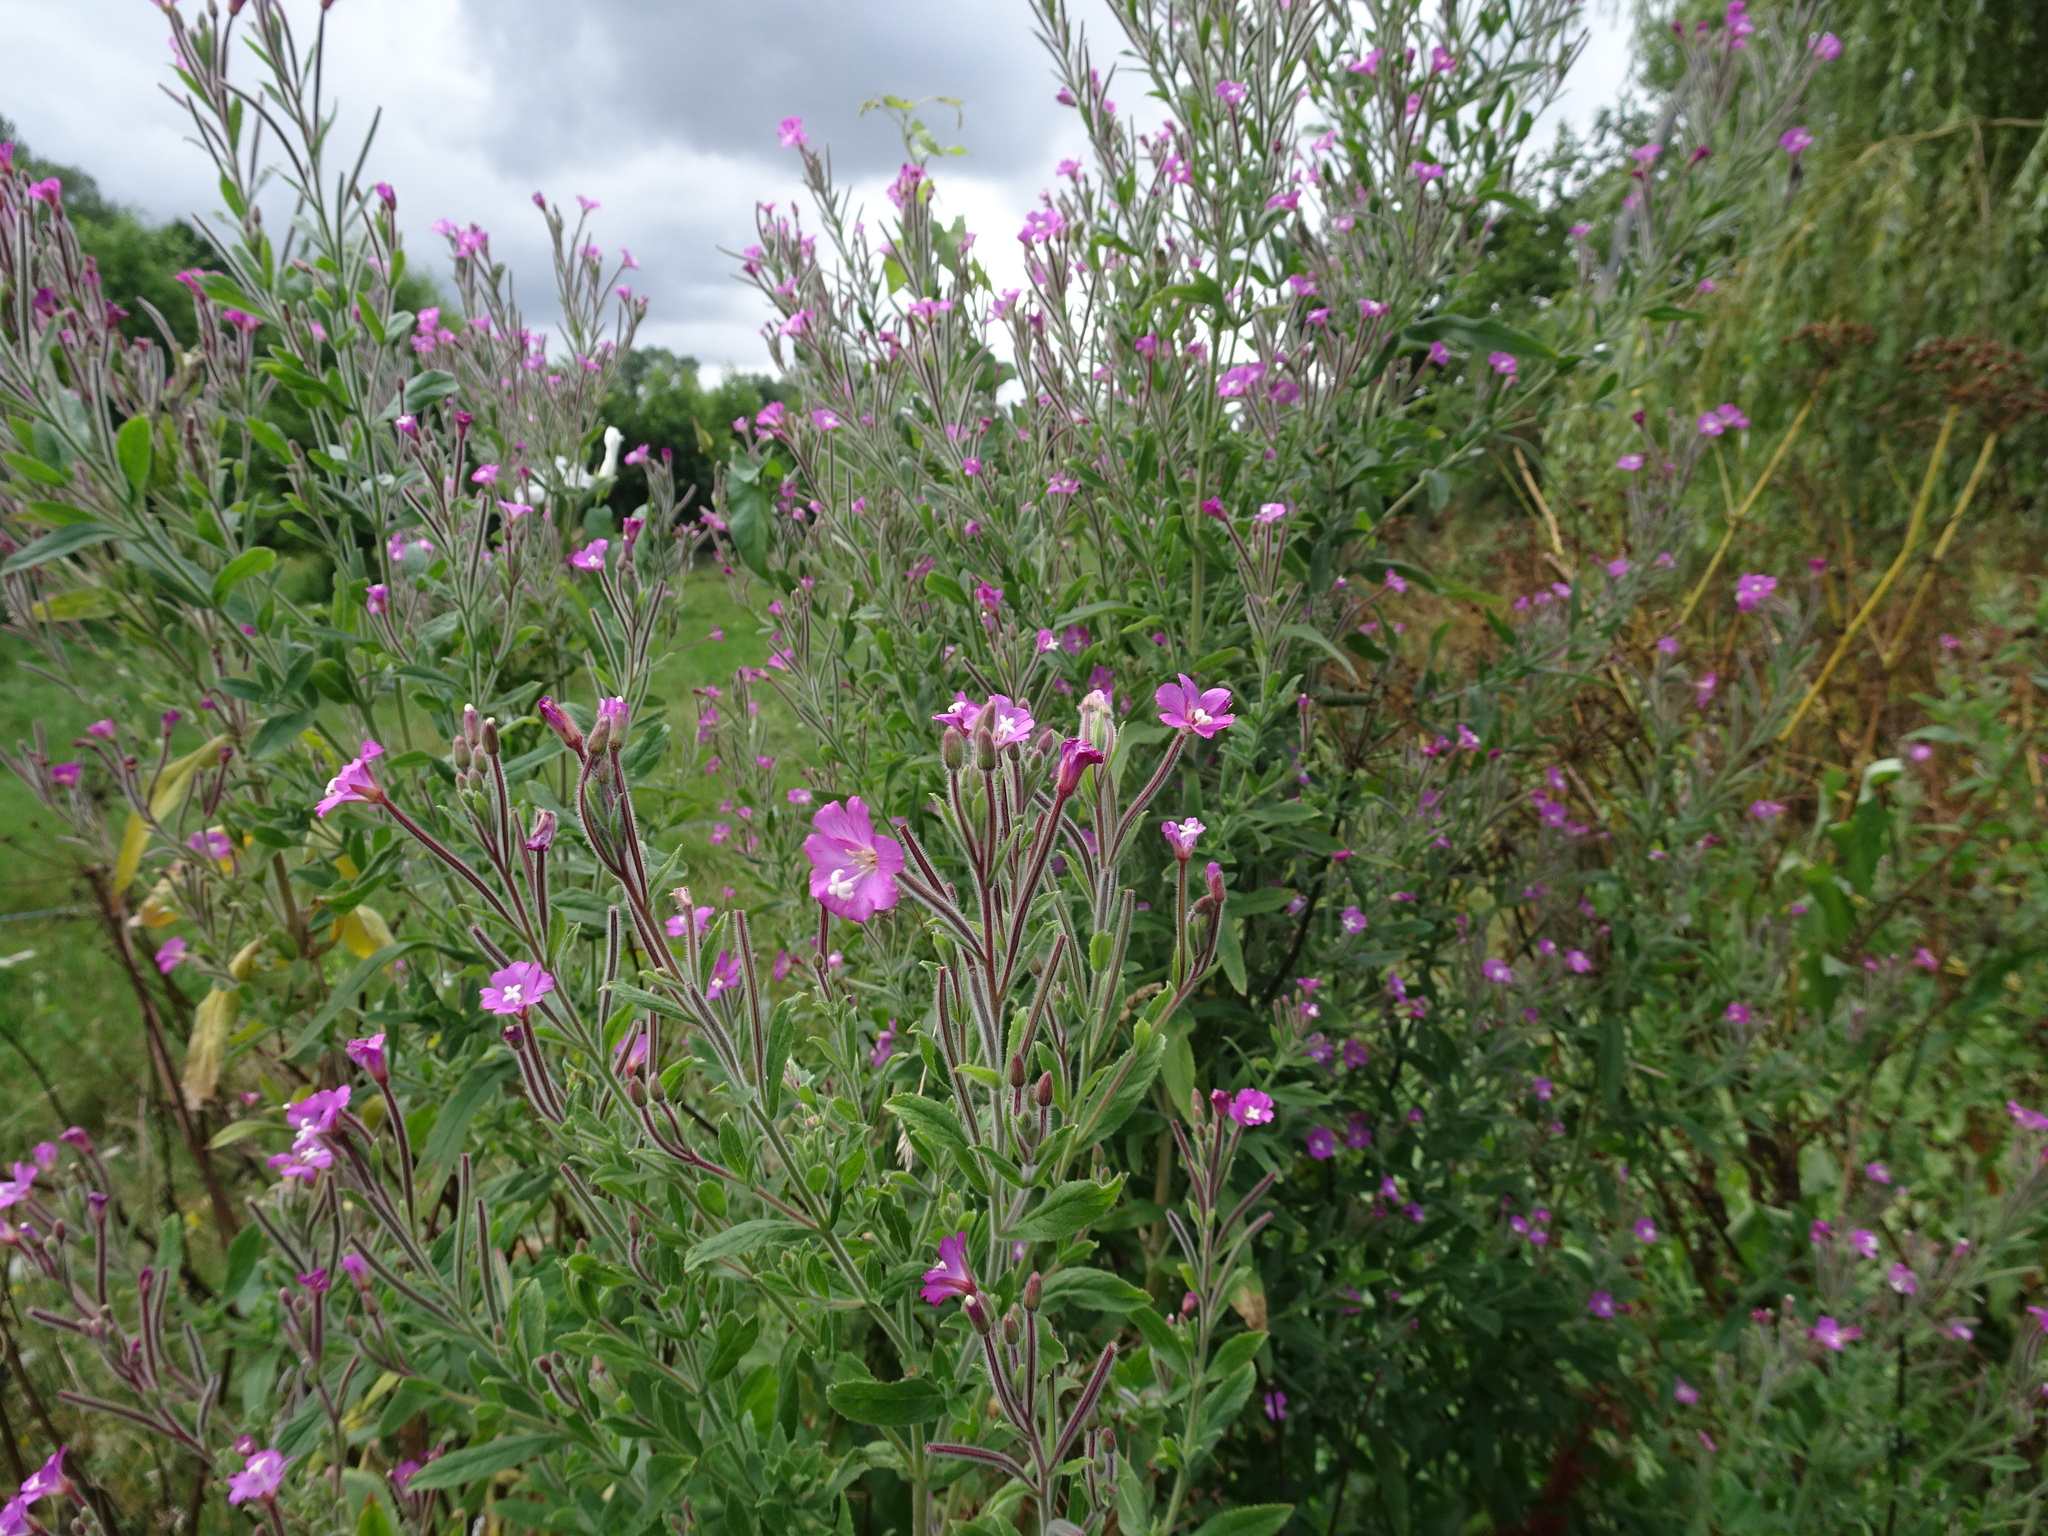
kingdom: Plantae
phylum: Tracheophyta
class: Magnoliopsida
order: Myrtales
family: Onagraceae
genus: Epilobium
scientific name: Epilobium hirsutum
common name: Great willowherb
